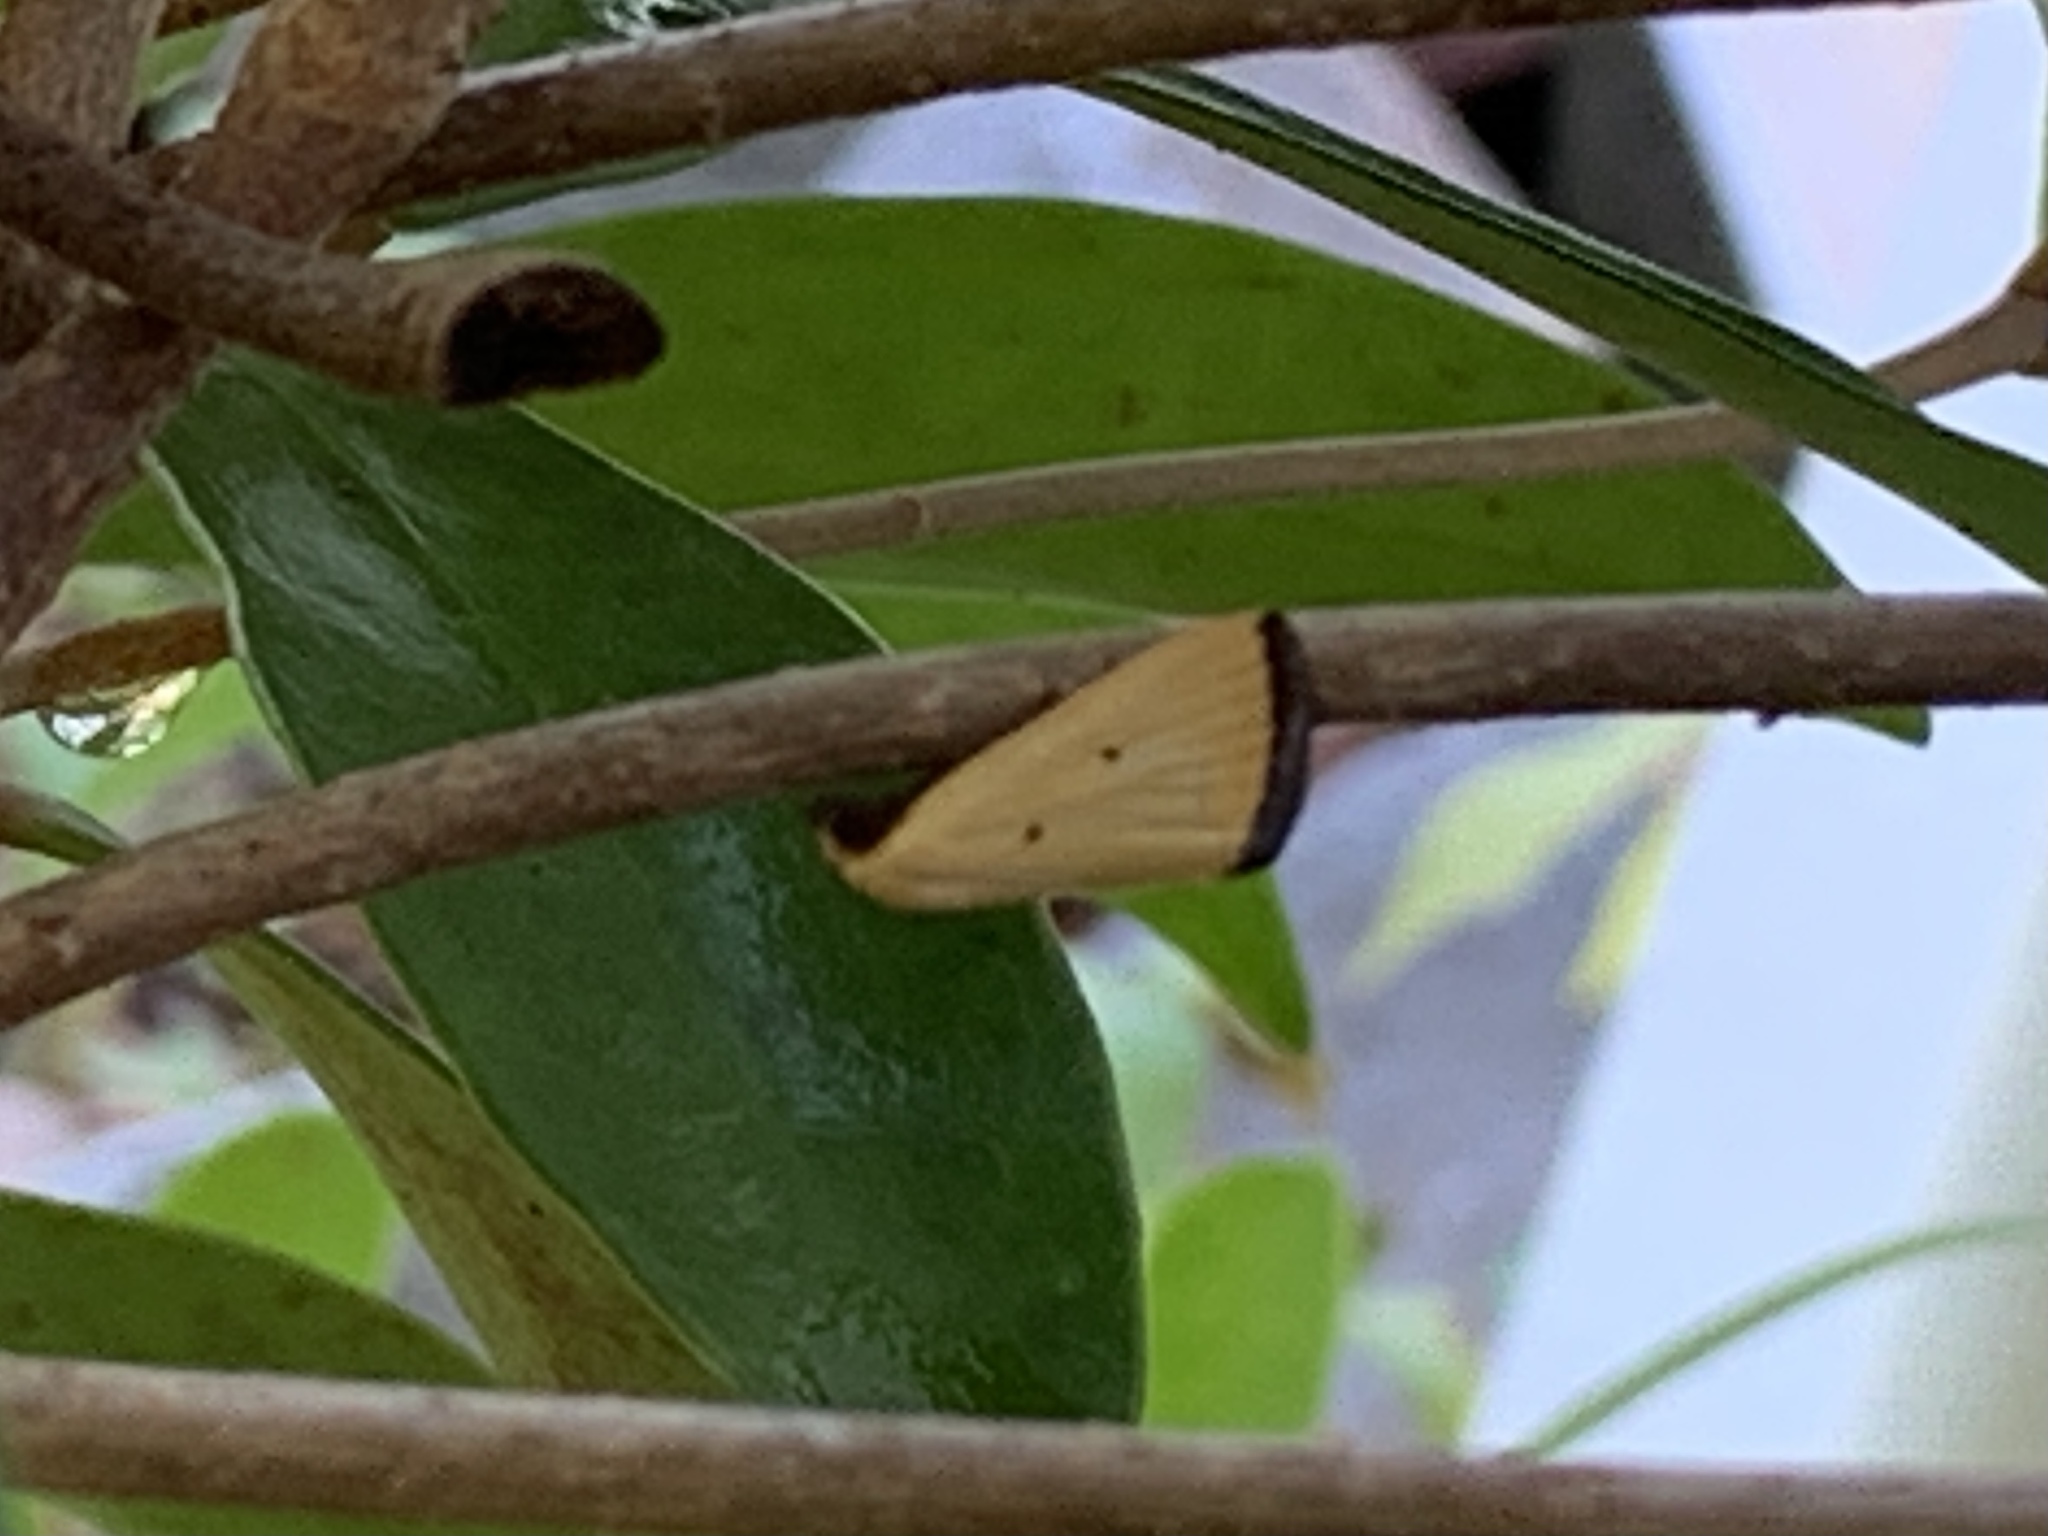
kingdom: Animalia
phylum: Arthropoda
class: Insecta
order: Lepidoptera
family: Noctuidae
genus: Marimatha
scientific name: Marimatha nigrofimbria
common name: Black-bordered lemon moth
